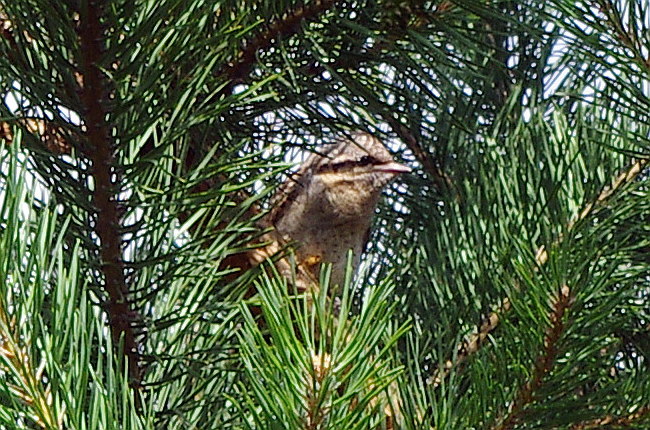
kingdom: Animalia
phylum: Chordata
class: Aves
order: Piciformes
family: Picidae
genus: Jynx
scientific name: Jynx torquilla
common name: Eurasian wryneck
